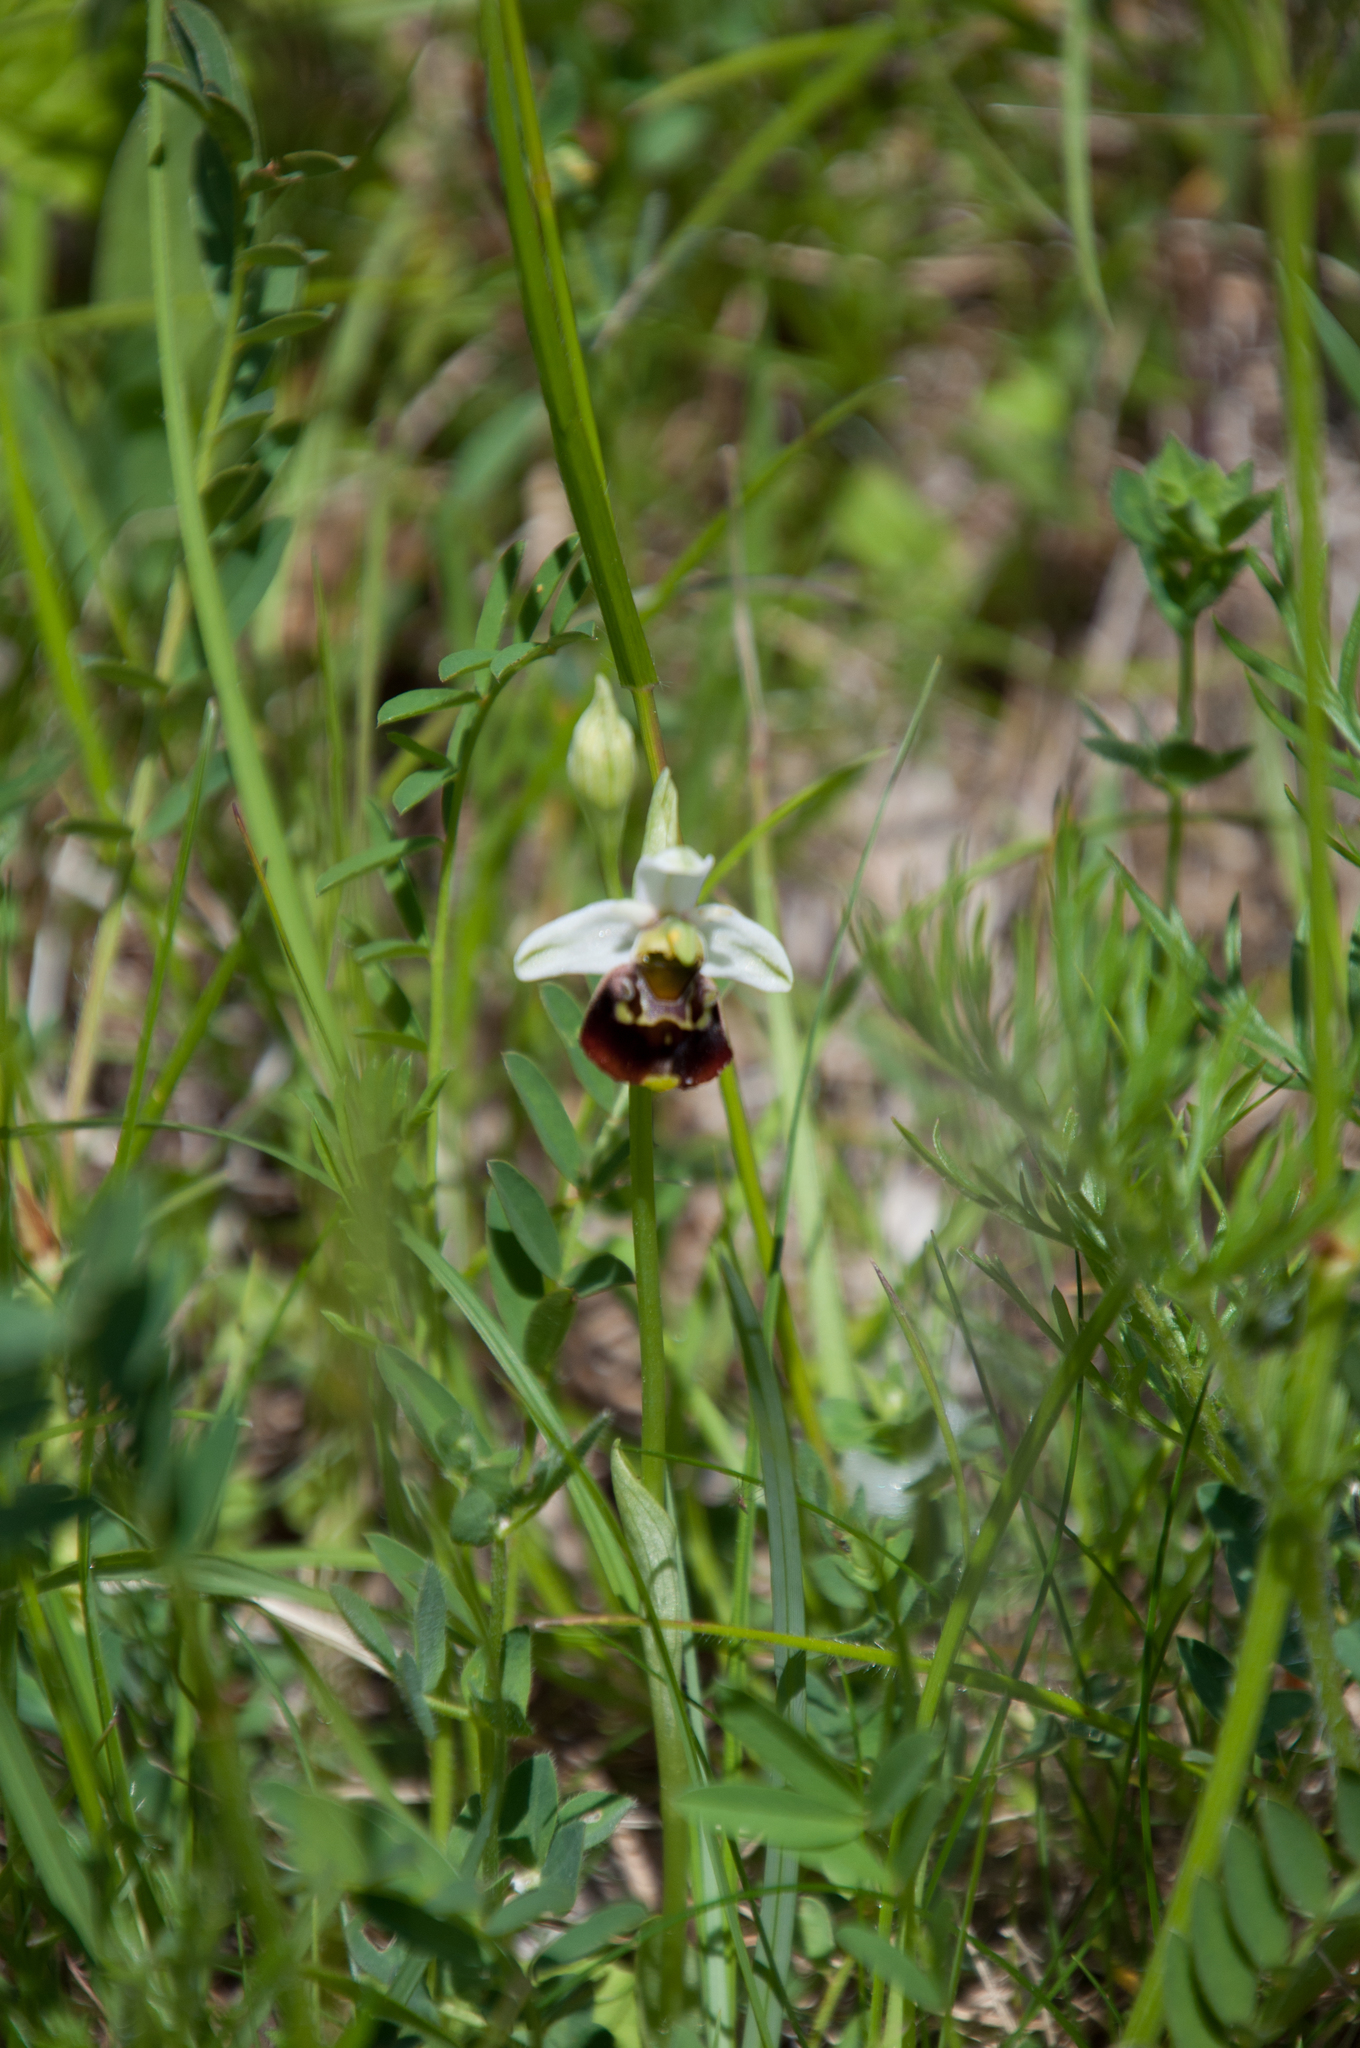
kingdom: Plantae
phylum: Tracheophyta
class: Liliopsida
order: Asparagales
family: Orchidaceae
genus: Ophrys
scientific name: Ophrys holosericea
